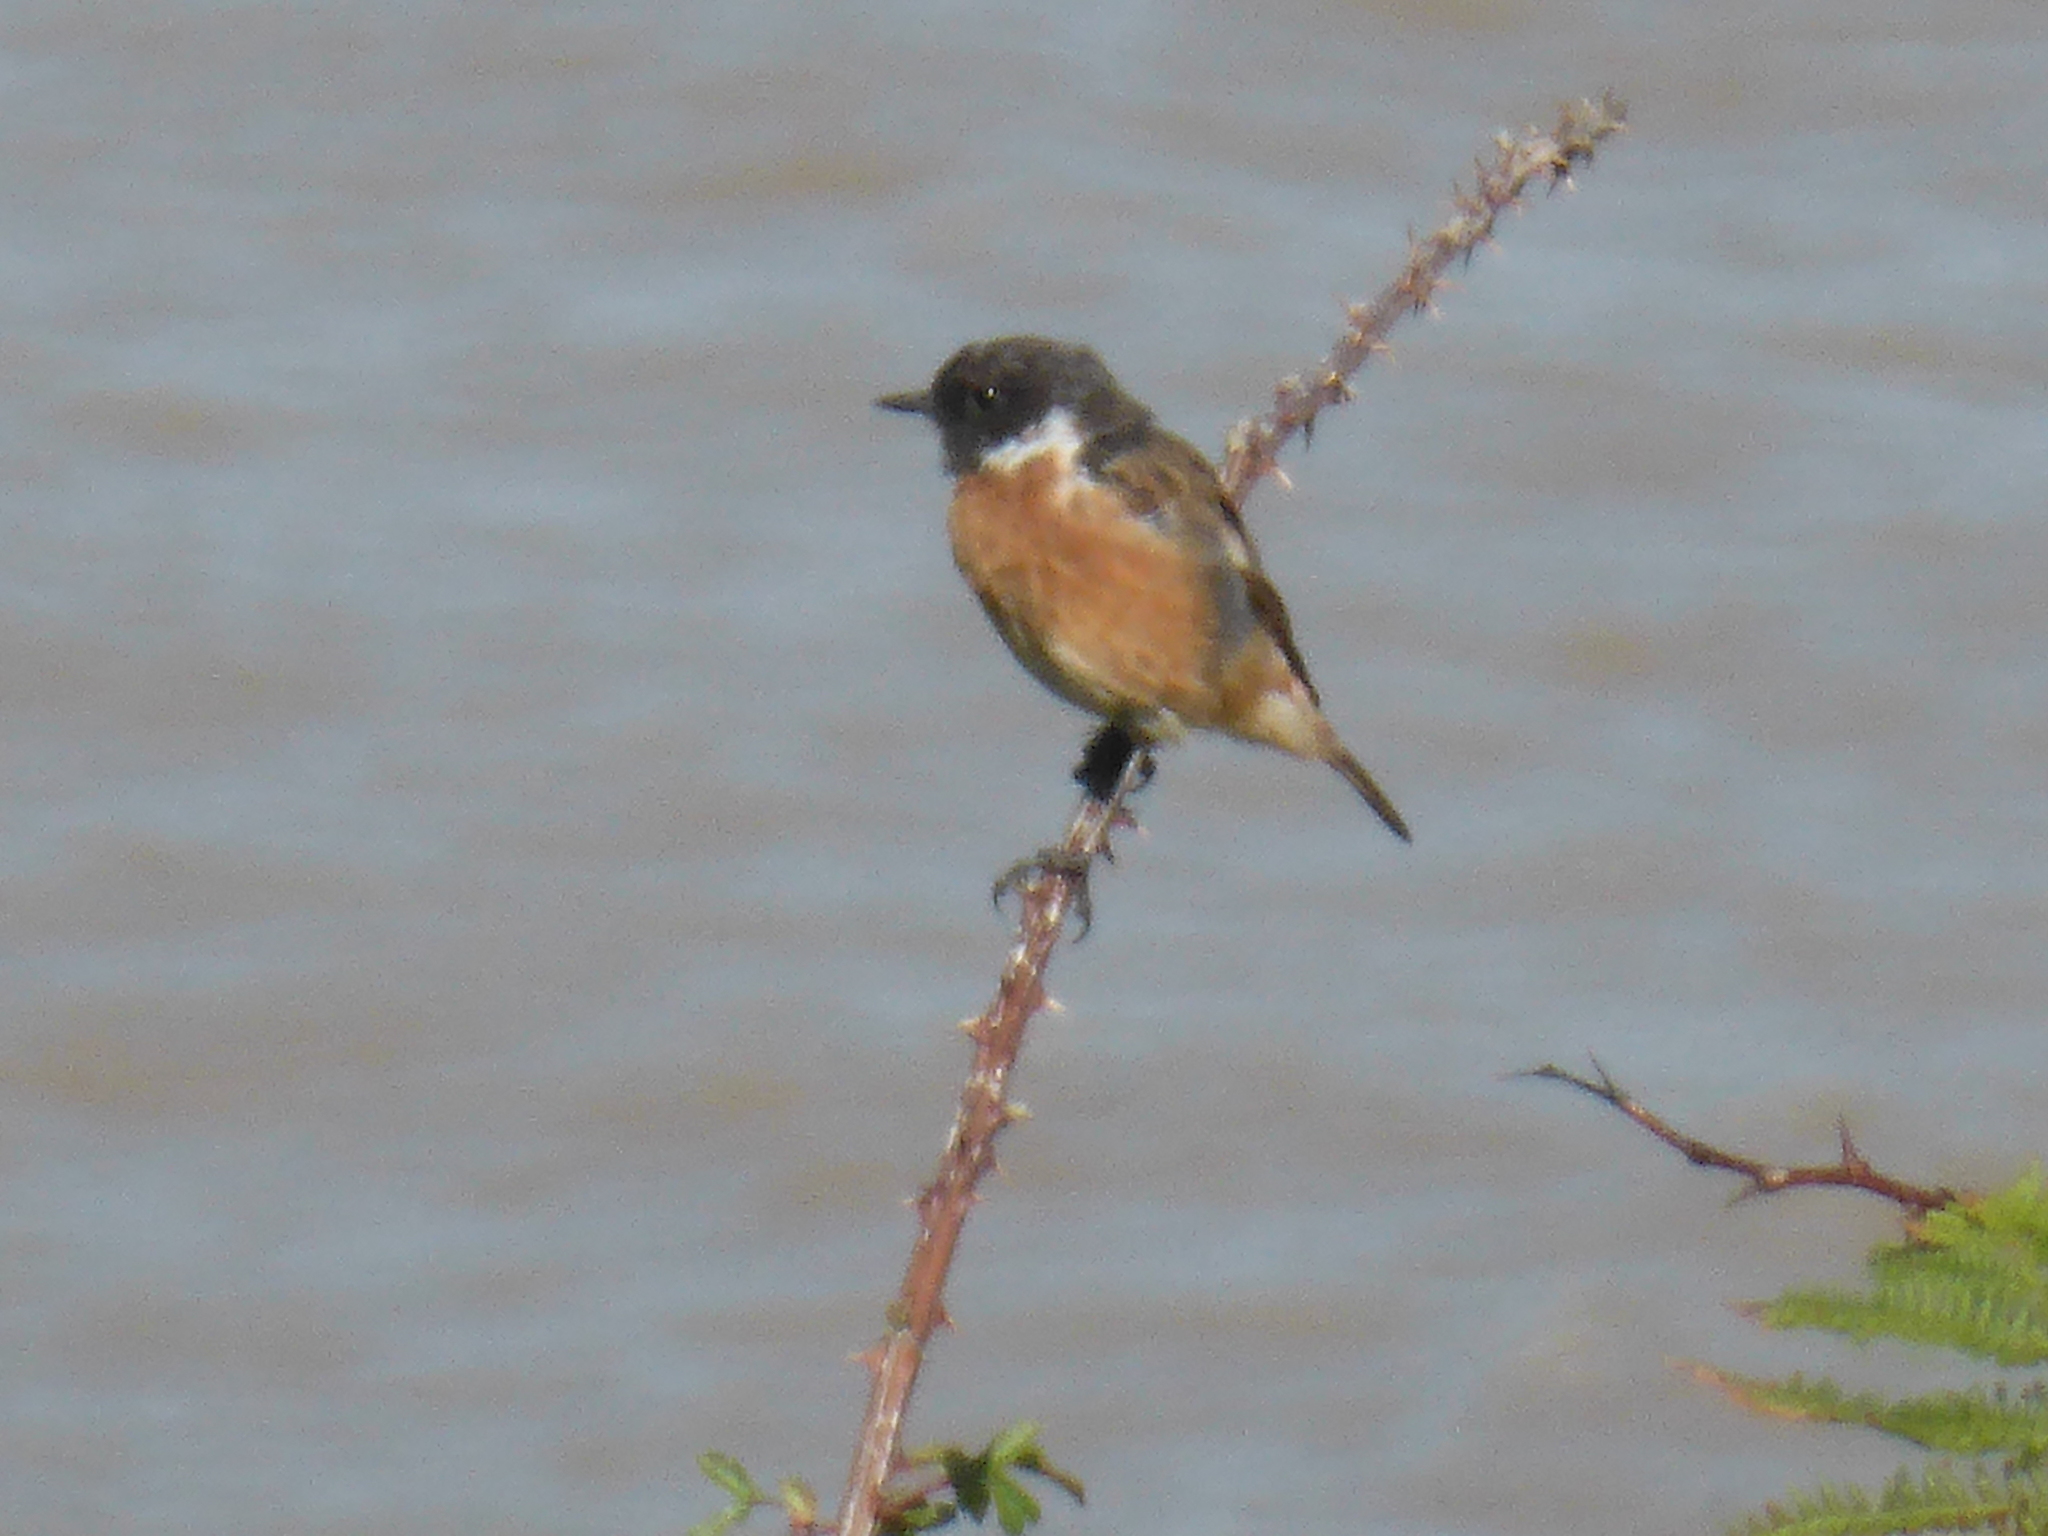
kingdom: Animalia
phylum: Chordata
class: Aves
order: Passeriformes
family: Muscicapidae
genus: Saxicola
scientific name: Saxicola rubicola
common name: European stonechat
